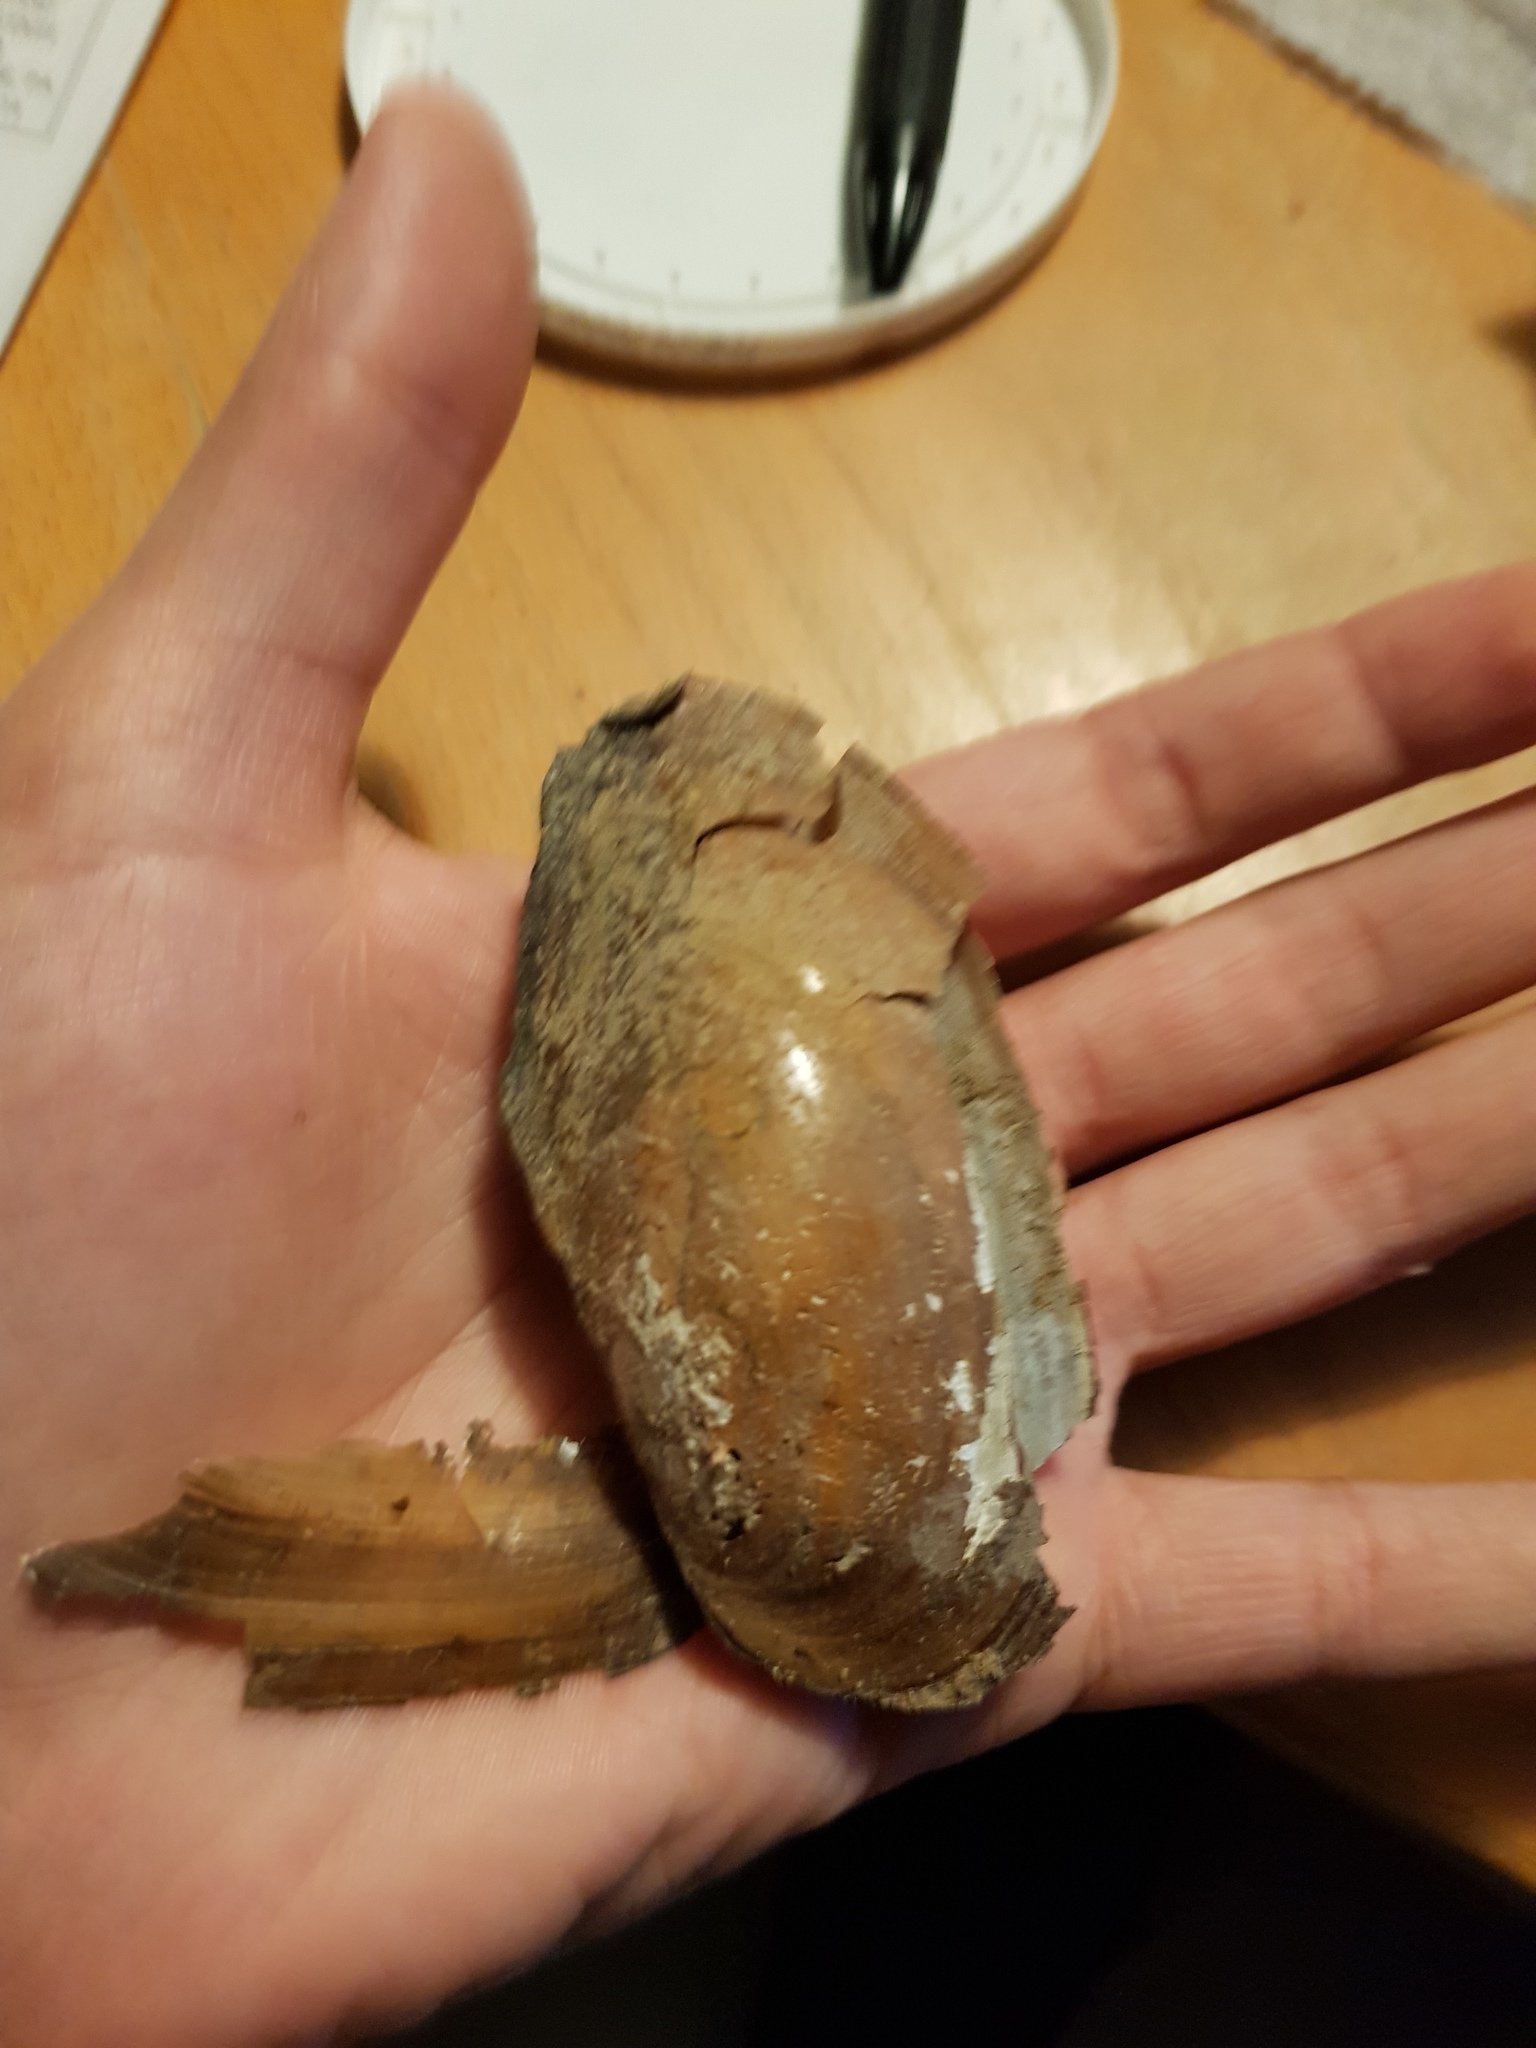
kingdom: Animalia
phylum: Mollusca
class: Bivalvia
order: Unionida
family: Unionidae
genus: Utterbackia
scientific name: Utterbackia imbecillis
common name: Paper pondshell
